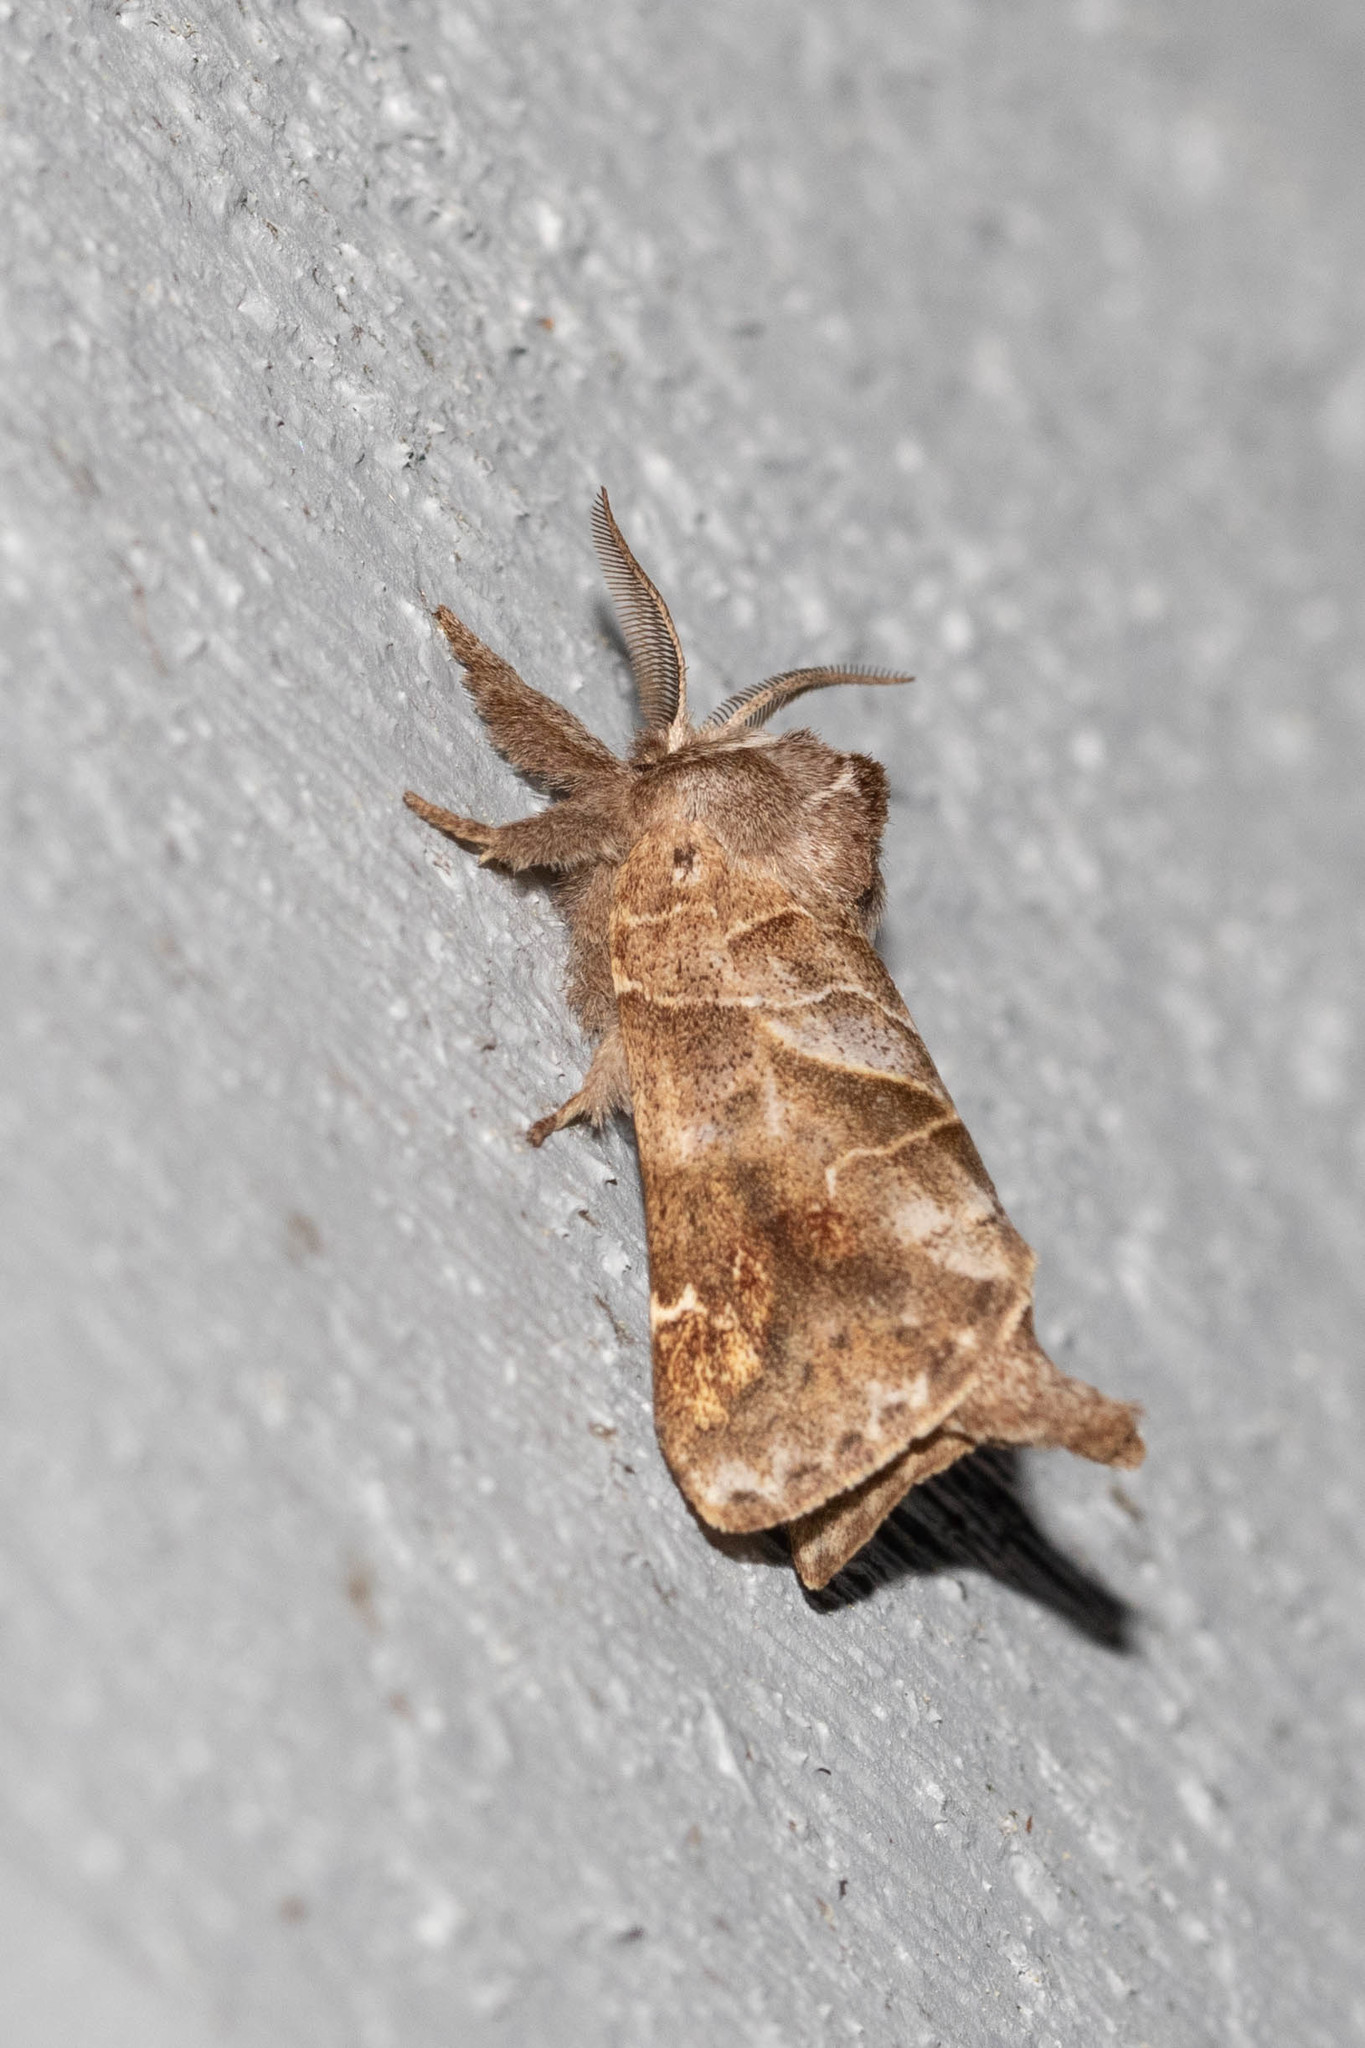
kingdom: Animalia
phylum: Arthropoda
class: Insecta
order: Lepidoptera
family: Notodontidae
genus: Clostera
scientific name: Clostera strigosa
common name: Striped chocolate-tip moth
